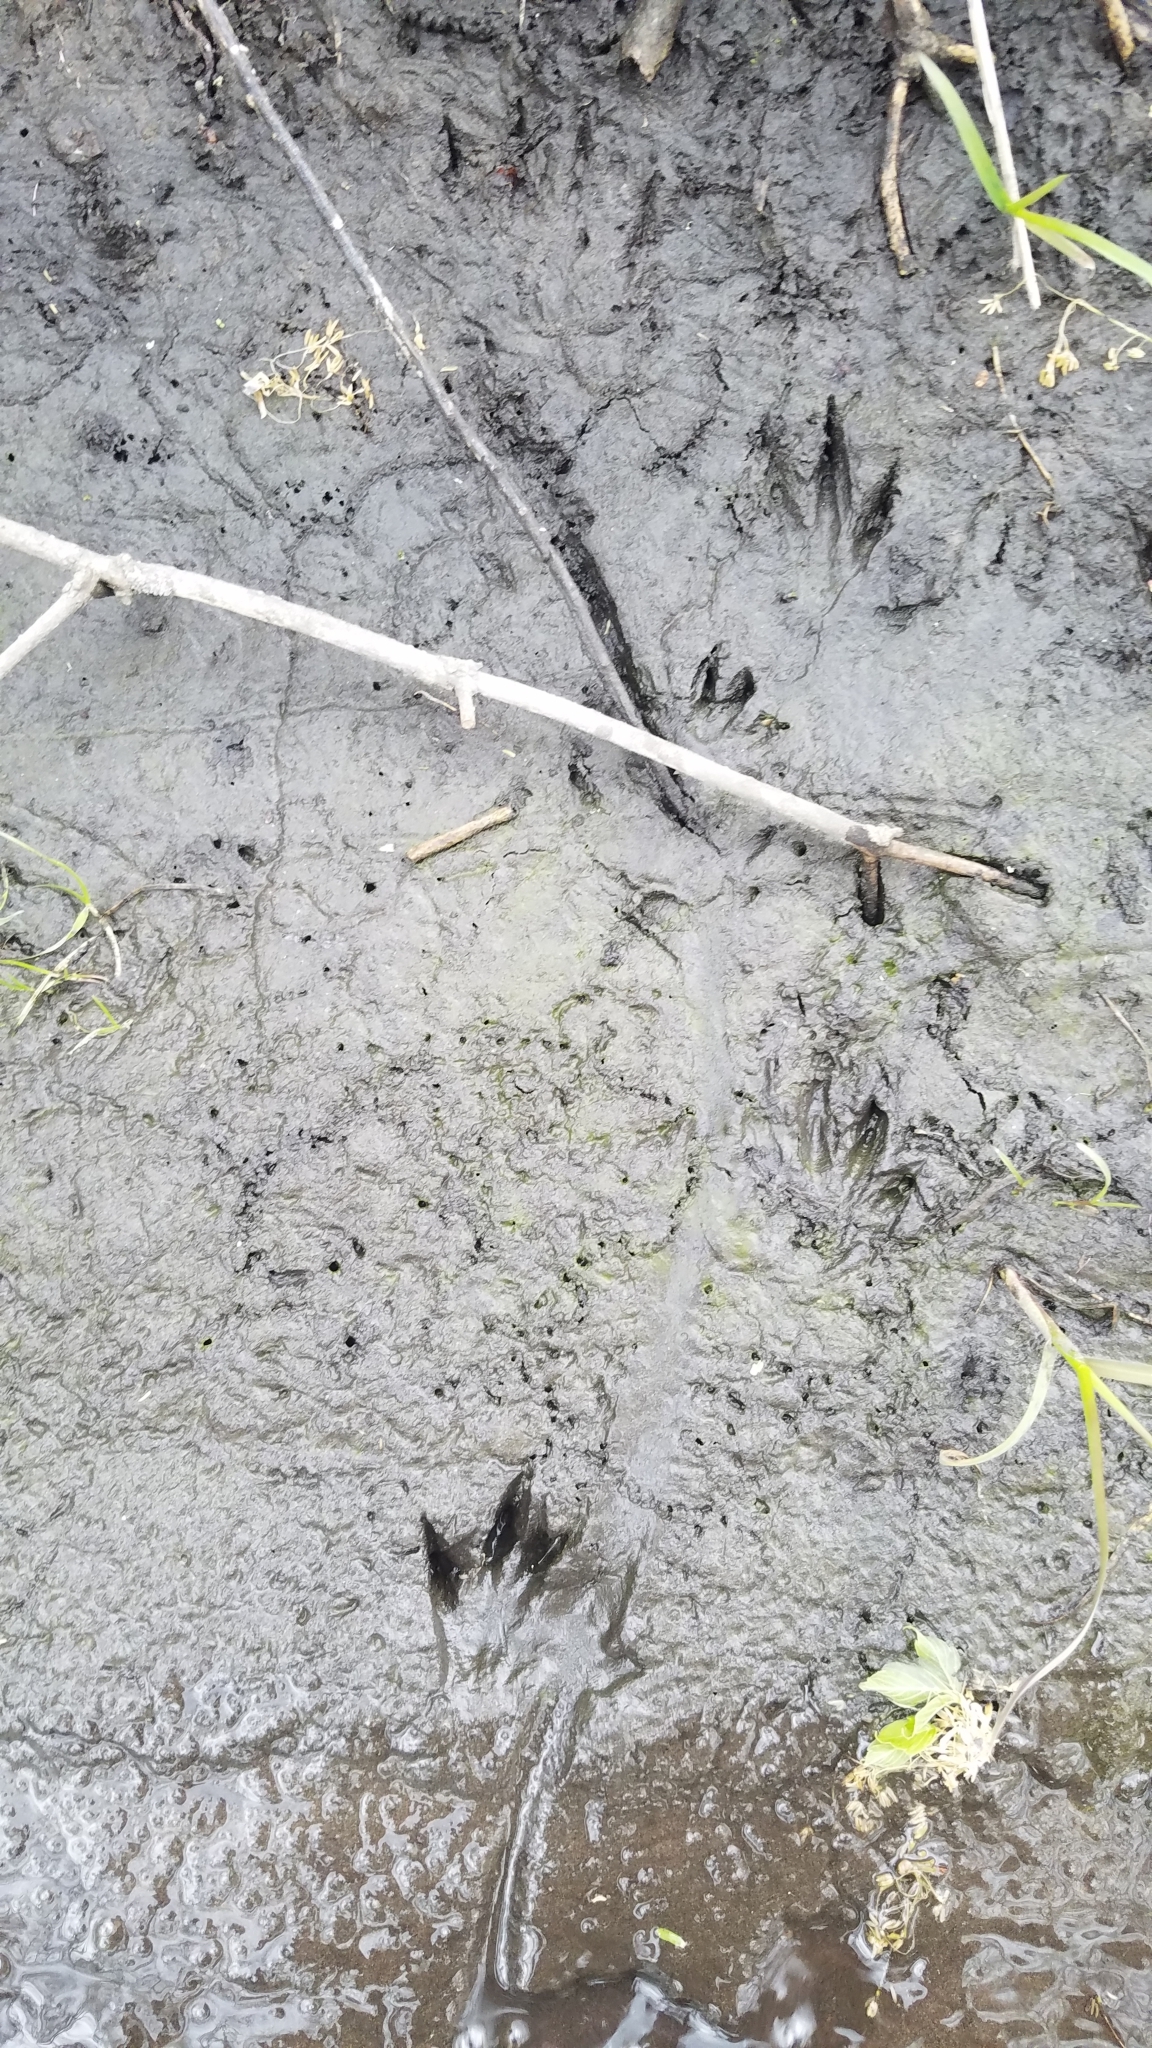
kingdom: Animalia
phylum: Chordata
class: Mammalia
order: Rodentia
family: Cricetidae
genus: Ondatra
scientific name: Ondatra zibethicus
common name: Muskrat
